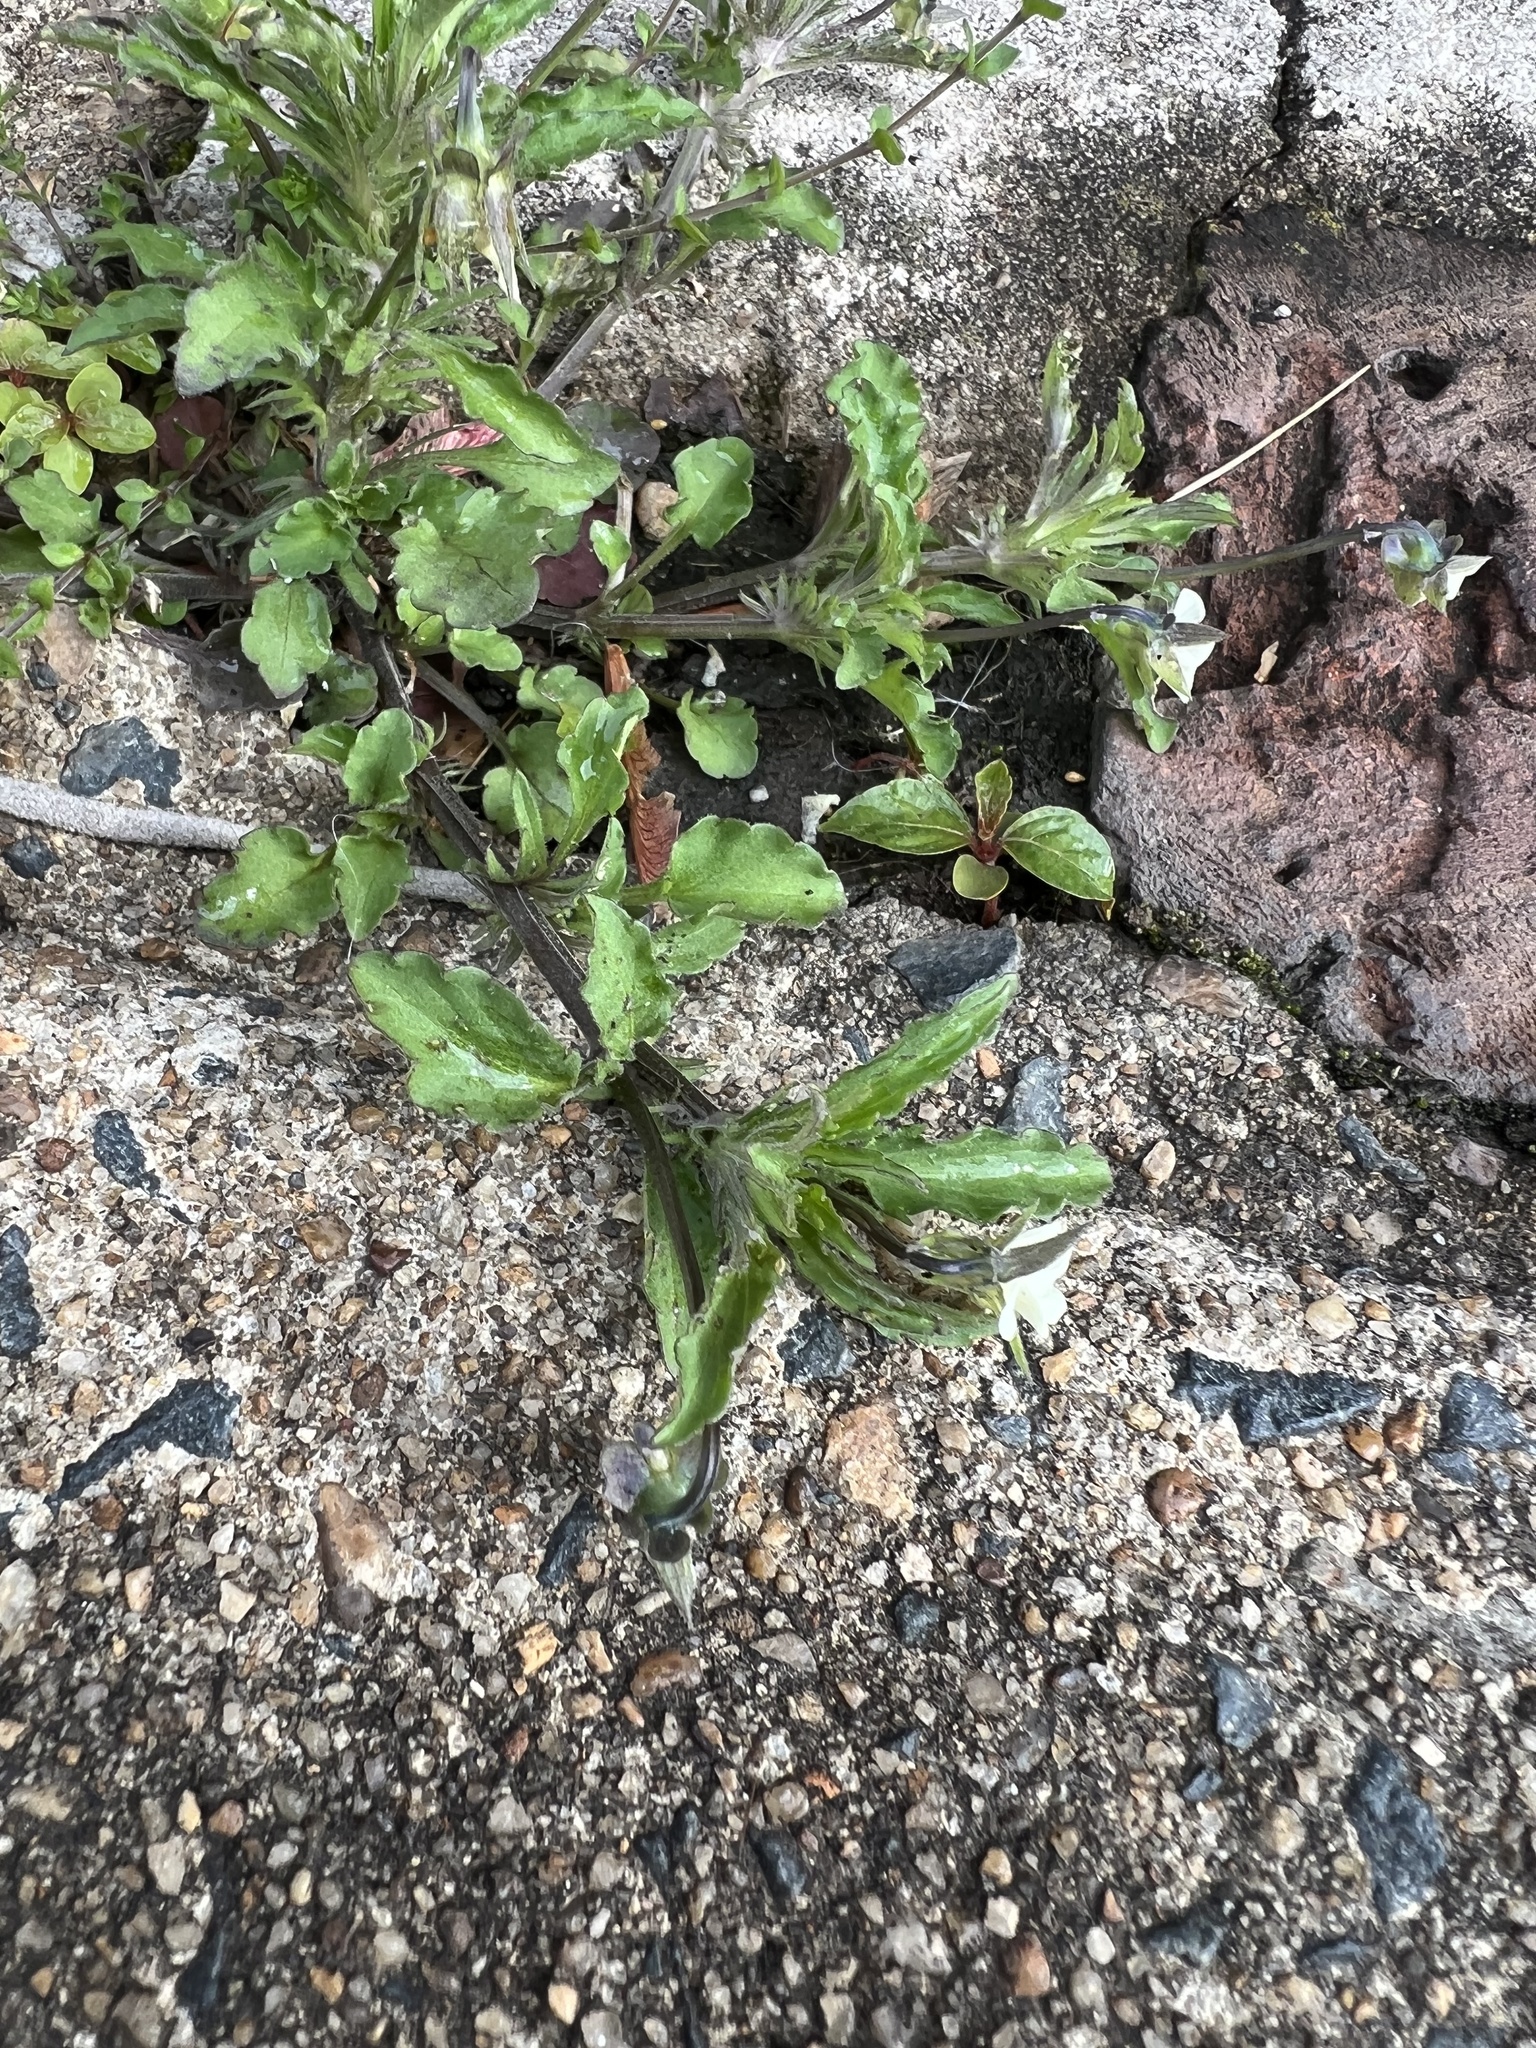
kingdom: Plantae
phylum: Tracheophyta
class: Magnoliopsida
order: Malpighiales
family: Violaceae
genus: Viola
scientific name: Viola arvensis
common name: Field pansy
